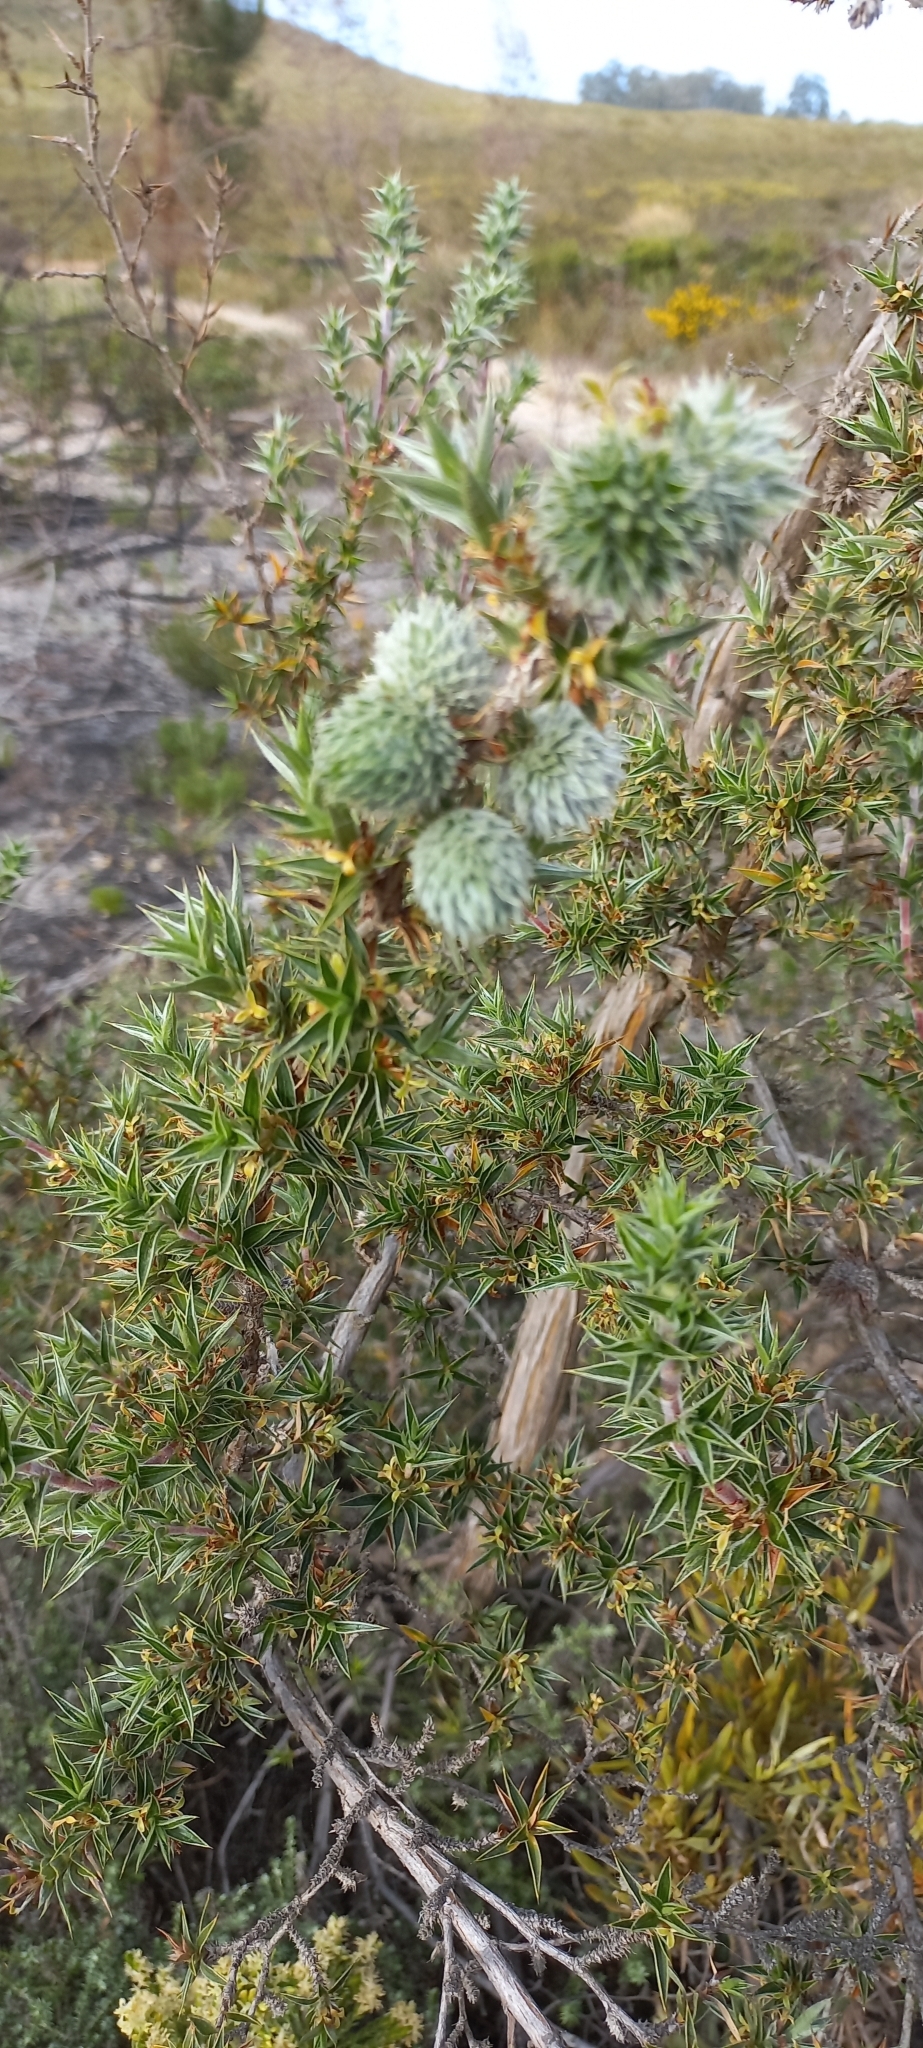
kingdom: Plantae
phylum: Tracheophyta
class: Magnoliopsida
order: Rosales
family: Rosaceae
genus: Cliffortia
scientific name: Cliffortia ruscifolia
